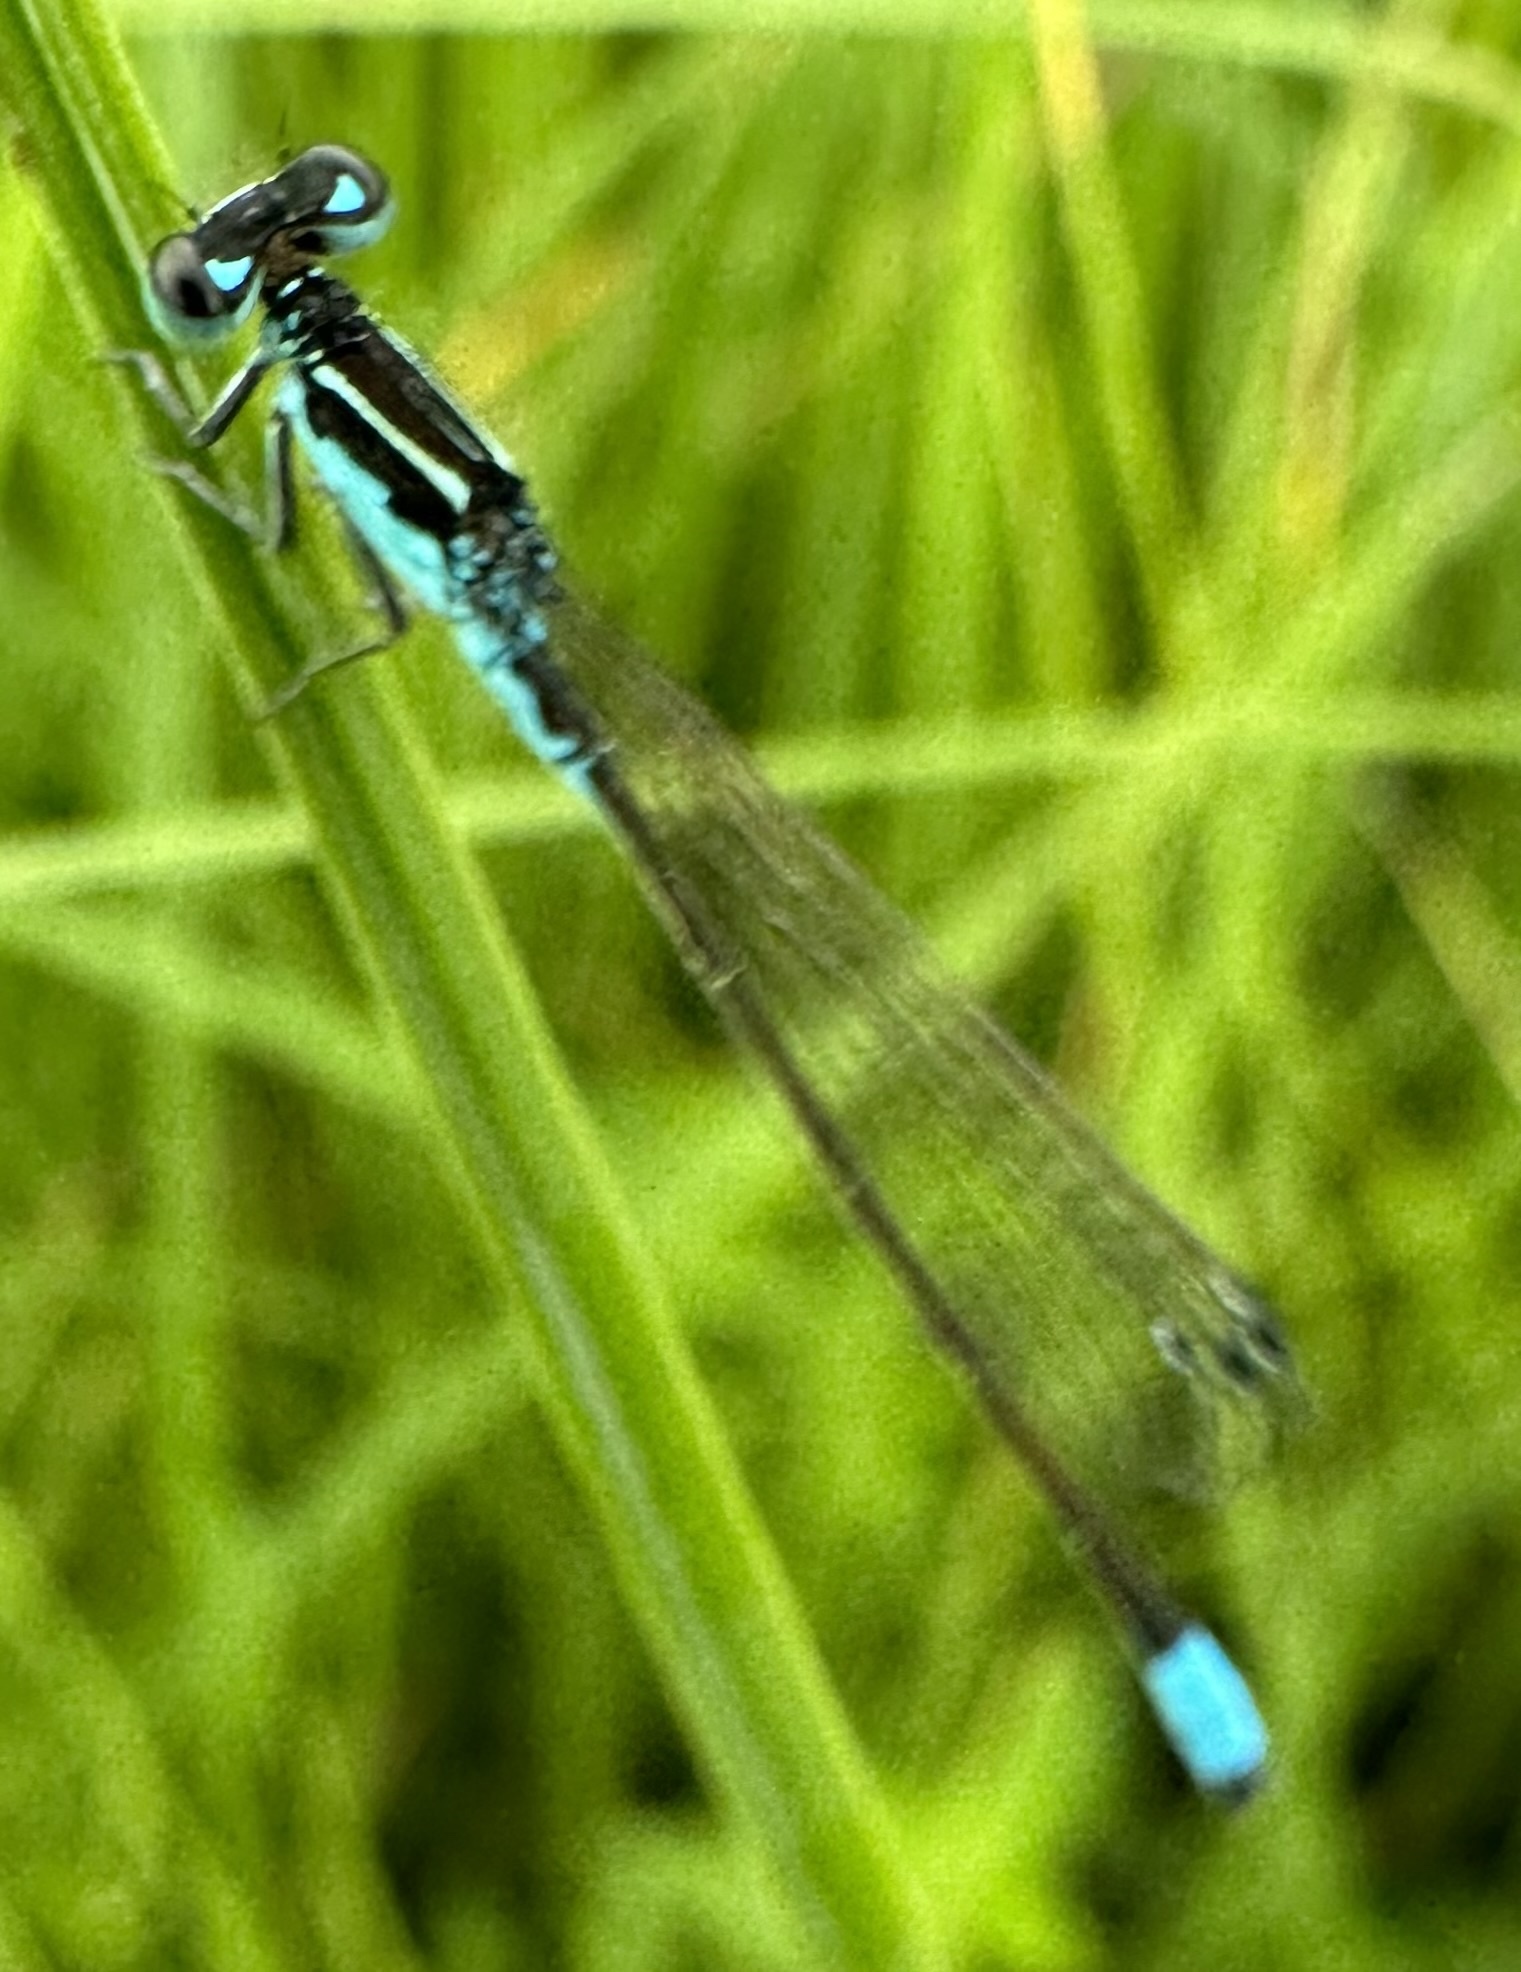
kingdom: Animalia
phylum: Arthropoda
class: Insecta
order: Odonata
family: Coenagrionidae
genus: Proischnura
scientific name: Proischnura rotundipennis
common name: Round-winged bluet
